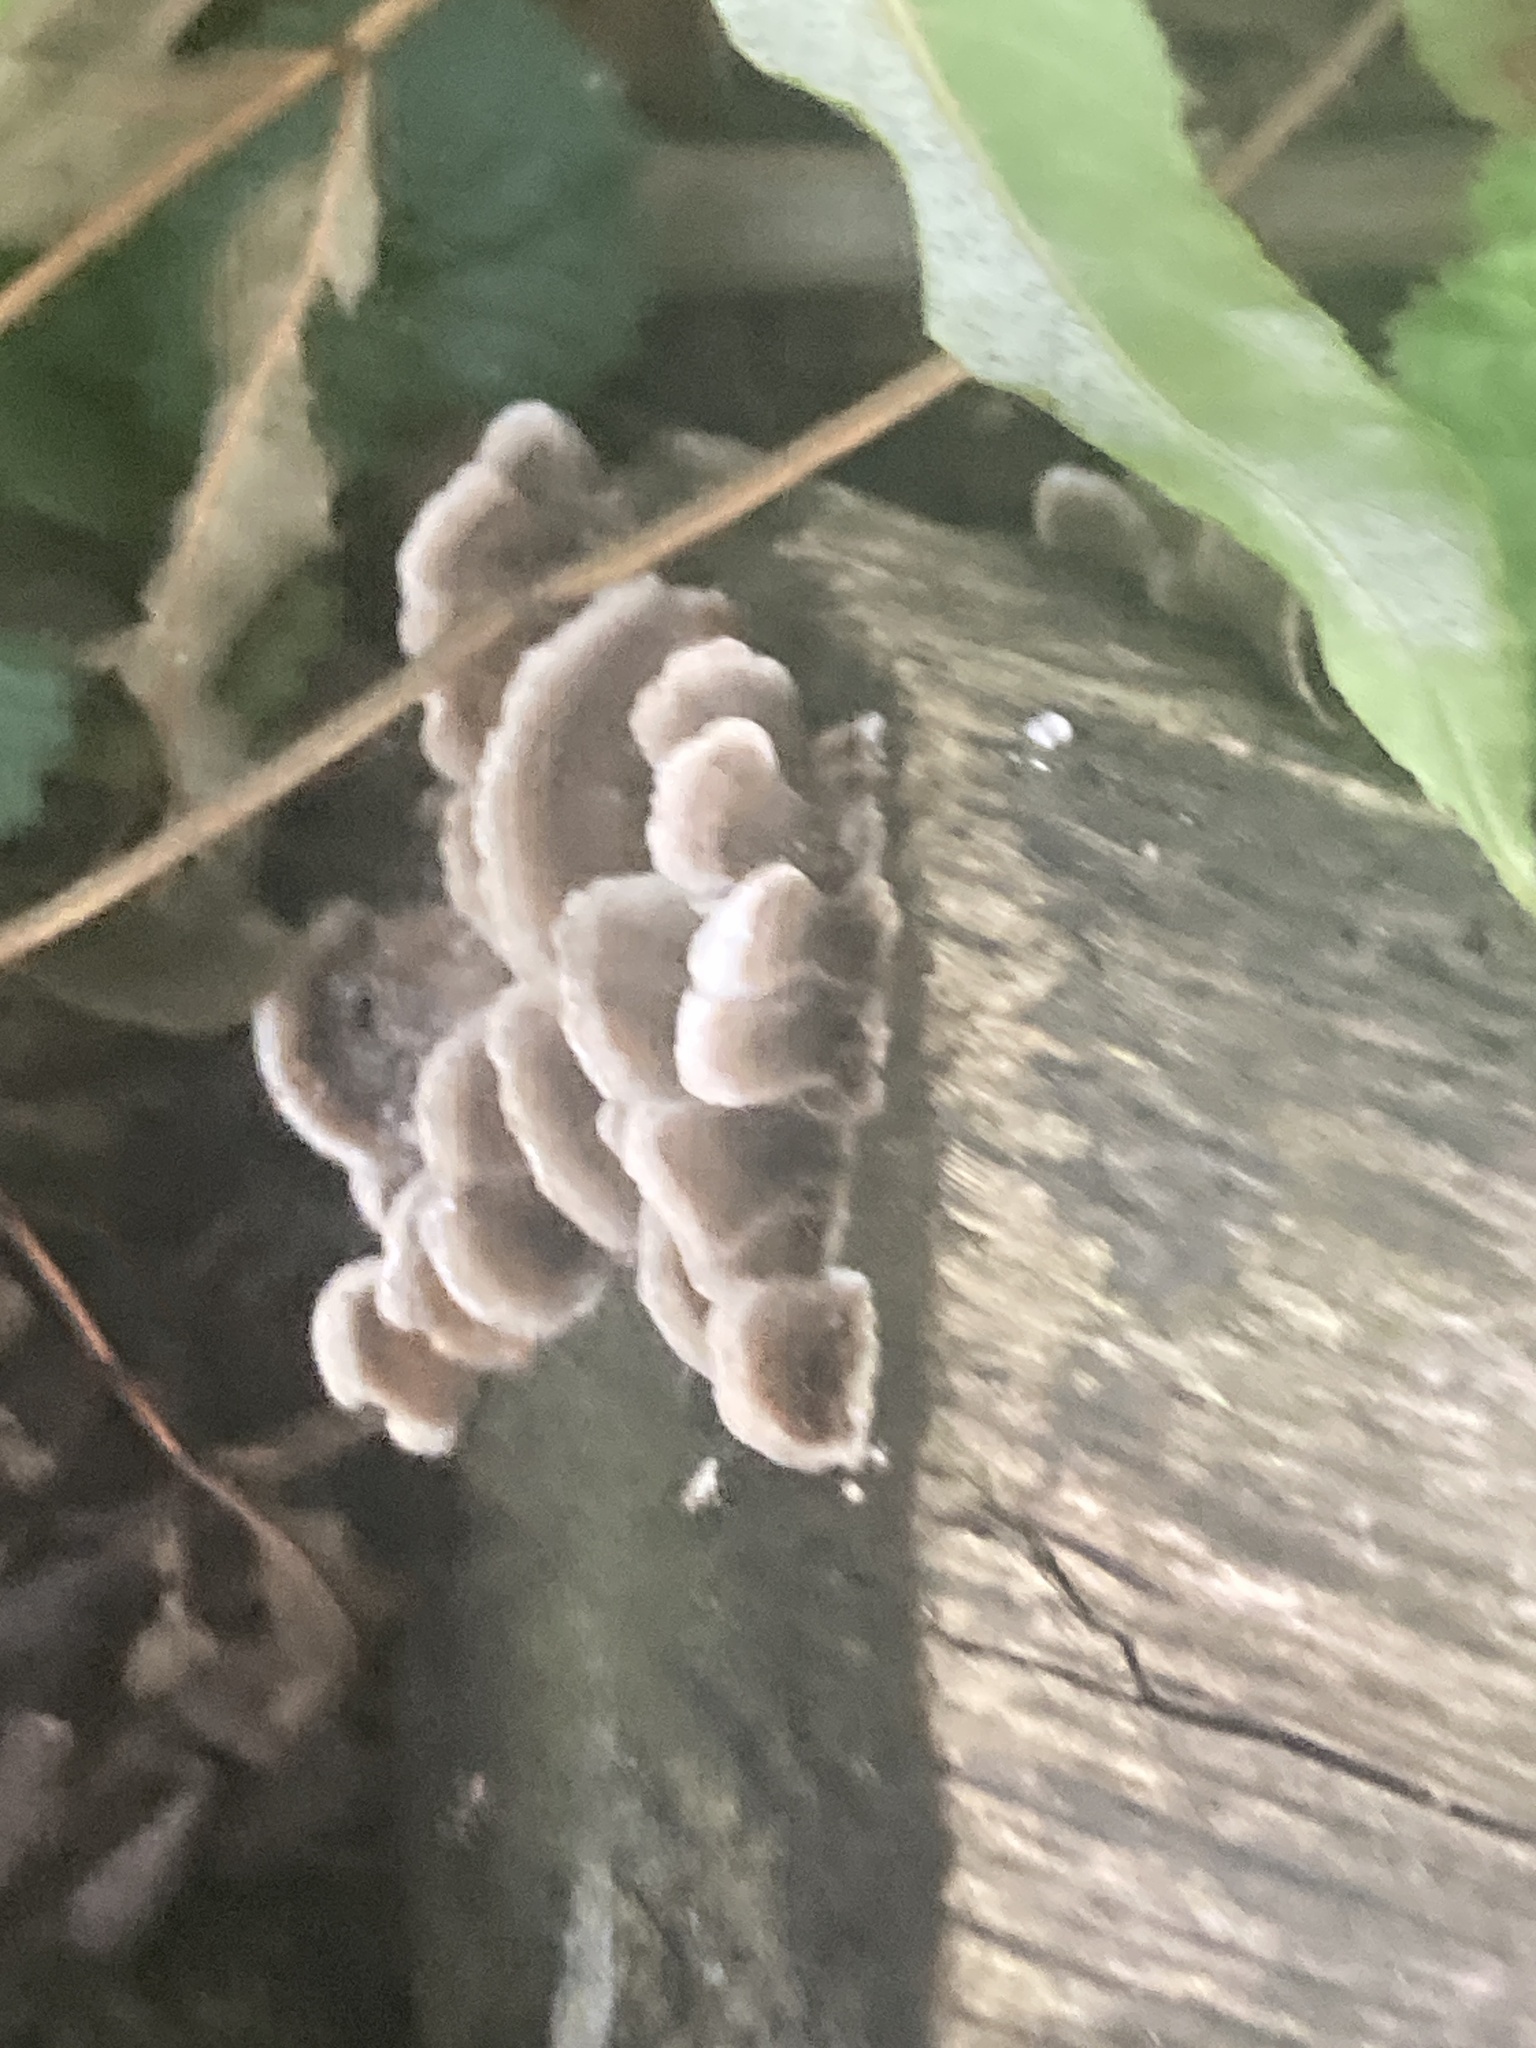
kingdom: Fungi
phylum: Basidiomycota
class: Agaricomycetes
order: Polyporales
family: Polyporaceae
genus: Trametes
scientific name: Trametes versicolor
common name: Turkeytail
